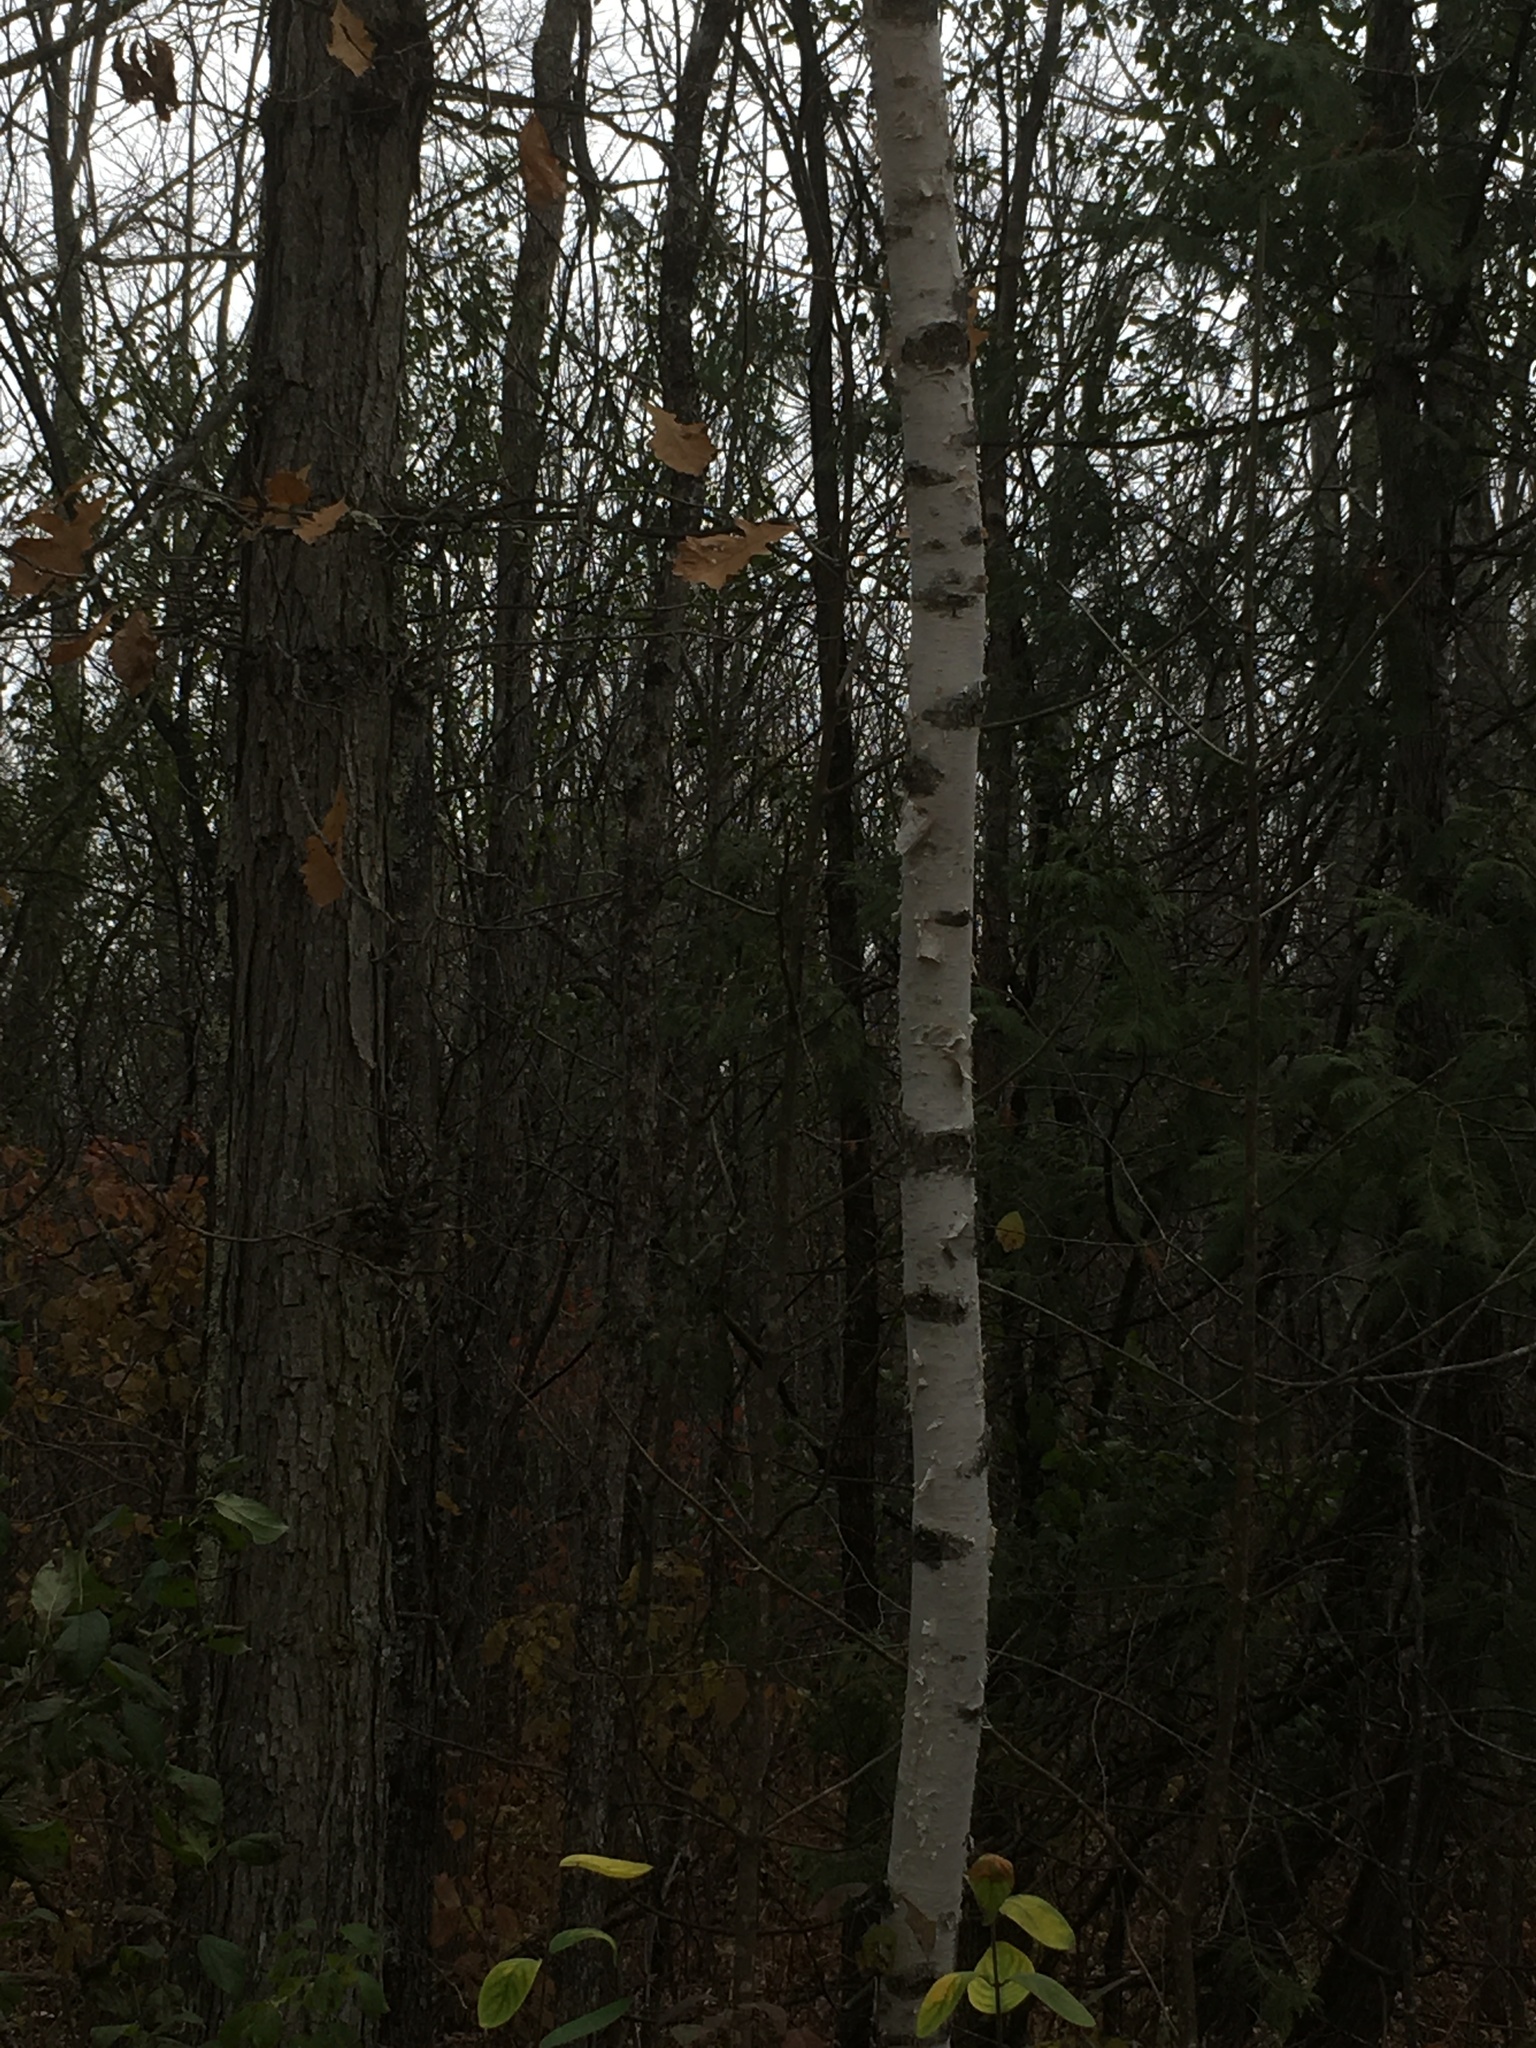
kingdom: Plantae
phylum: Tracheophyta
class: Magnoliopsida
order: Fagales
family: Betulaceae
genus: Betula
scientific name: Betula papyrifera
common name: Paper birch
